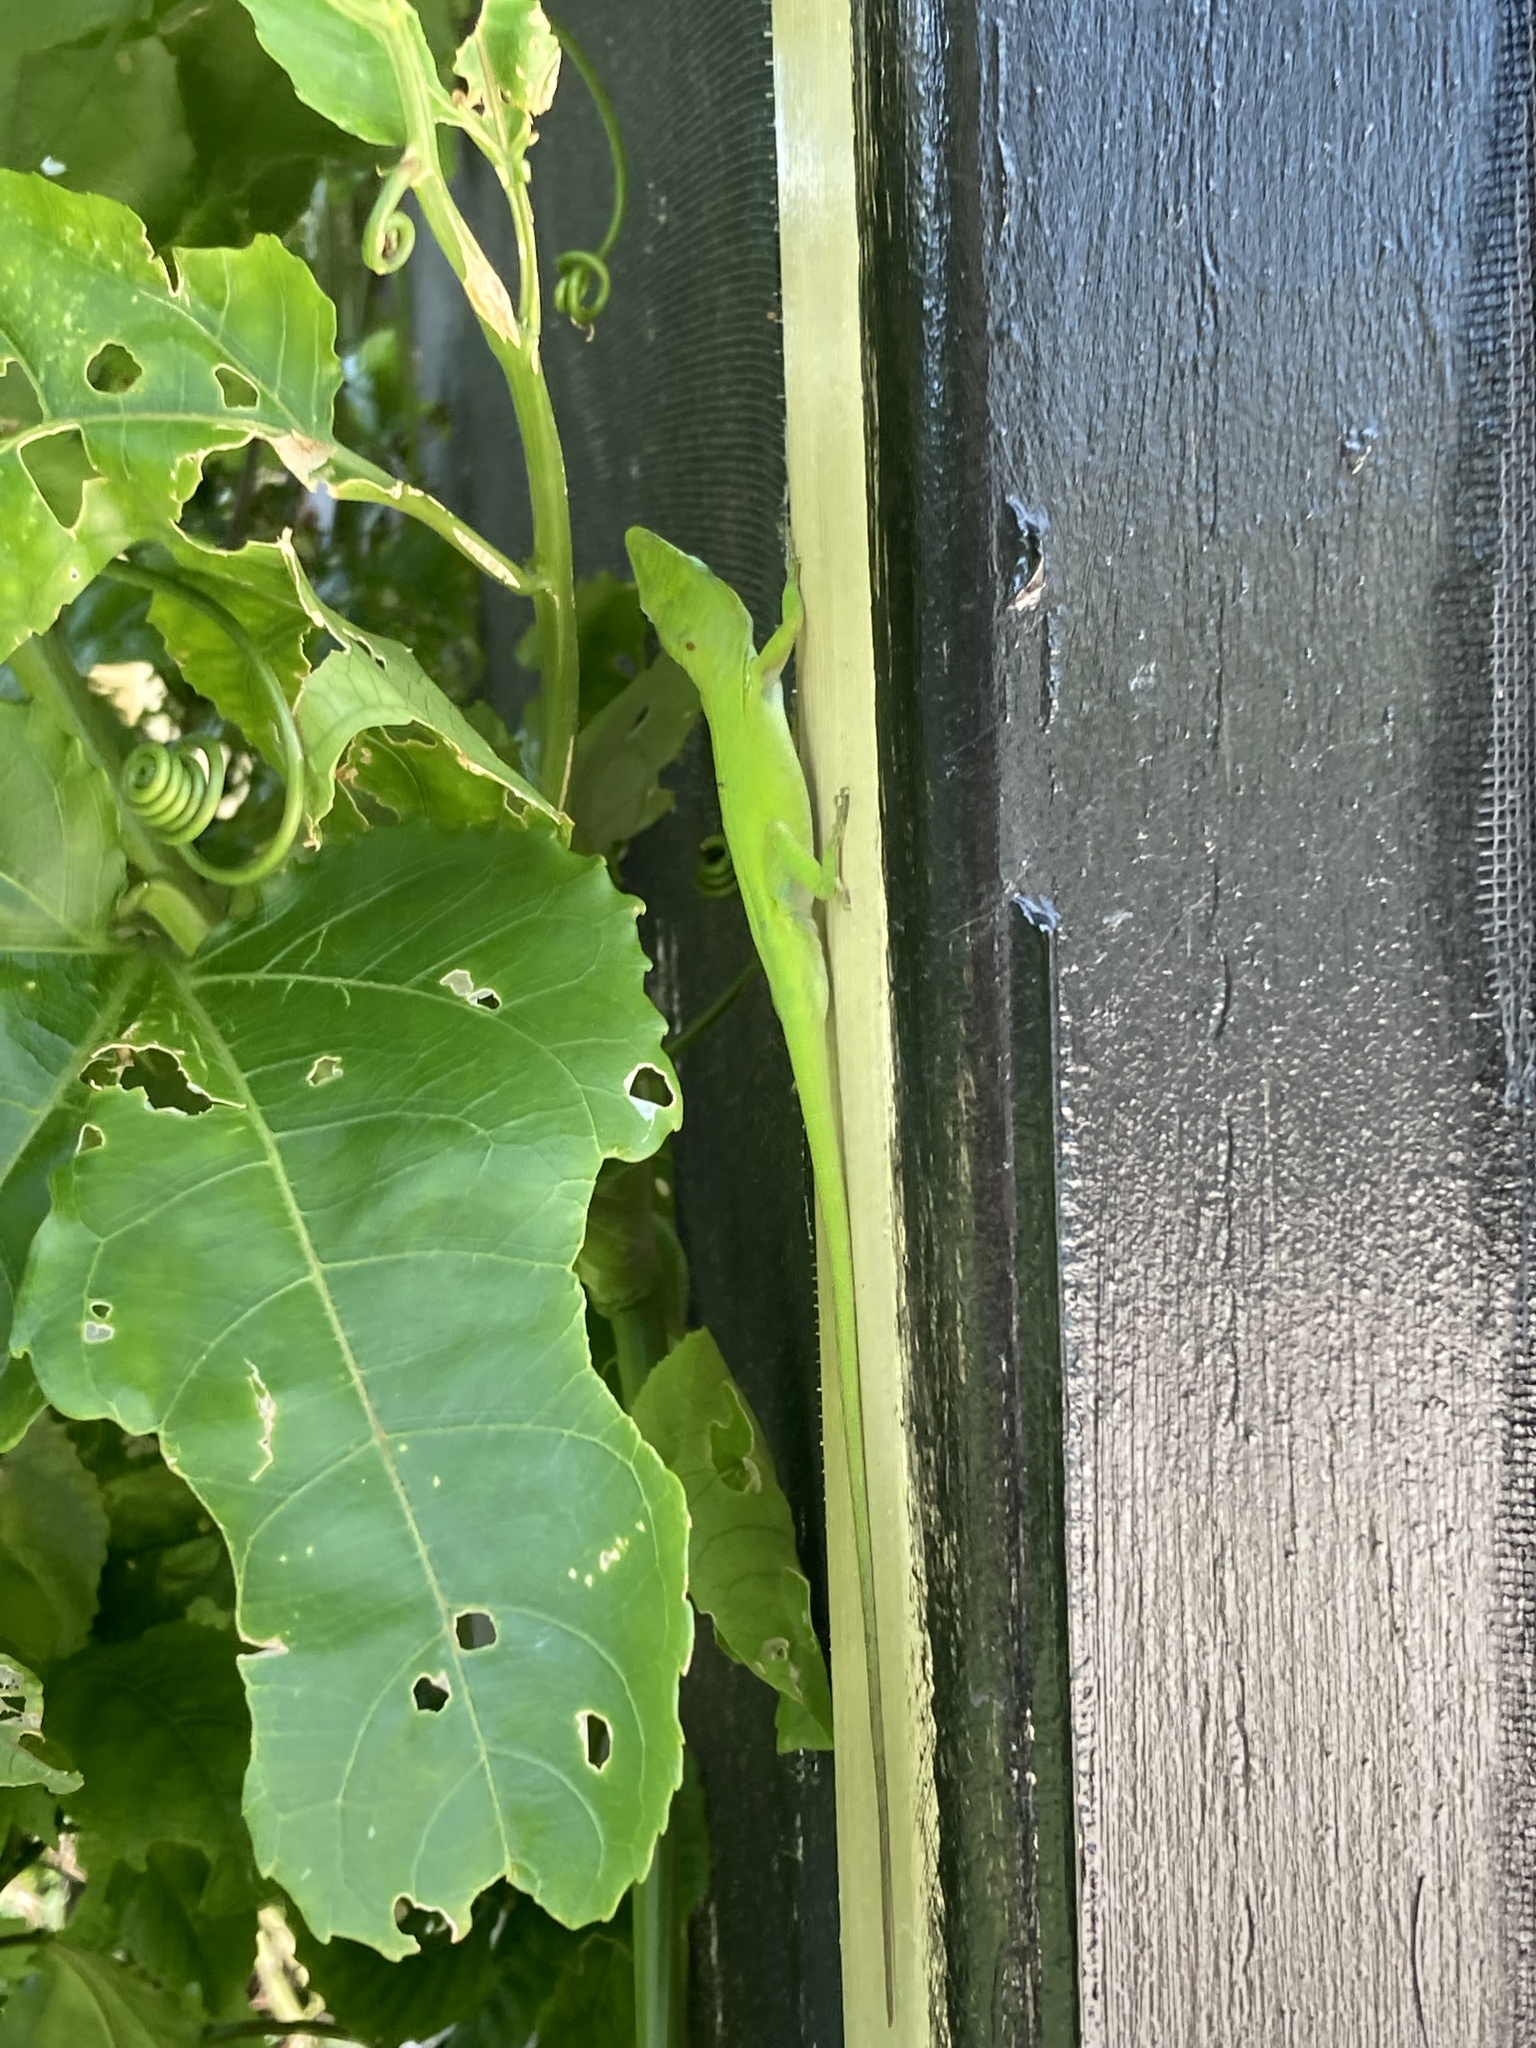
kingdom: Animalia
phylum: Chordata
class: Squamata
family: Dactyloidae
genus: Anolis
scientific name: Anolis carolinensis
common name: Green anole
